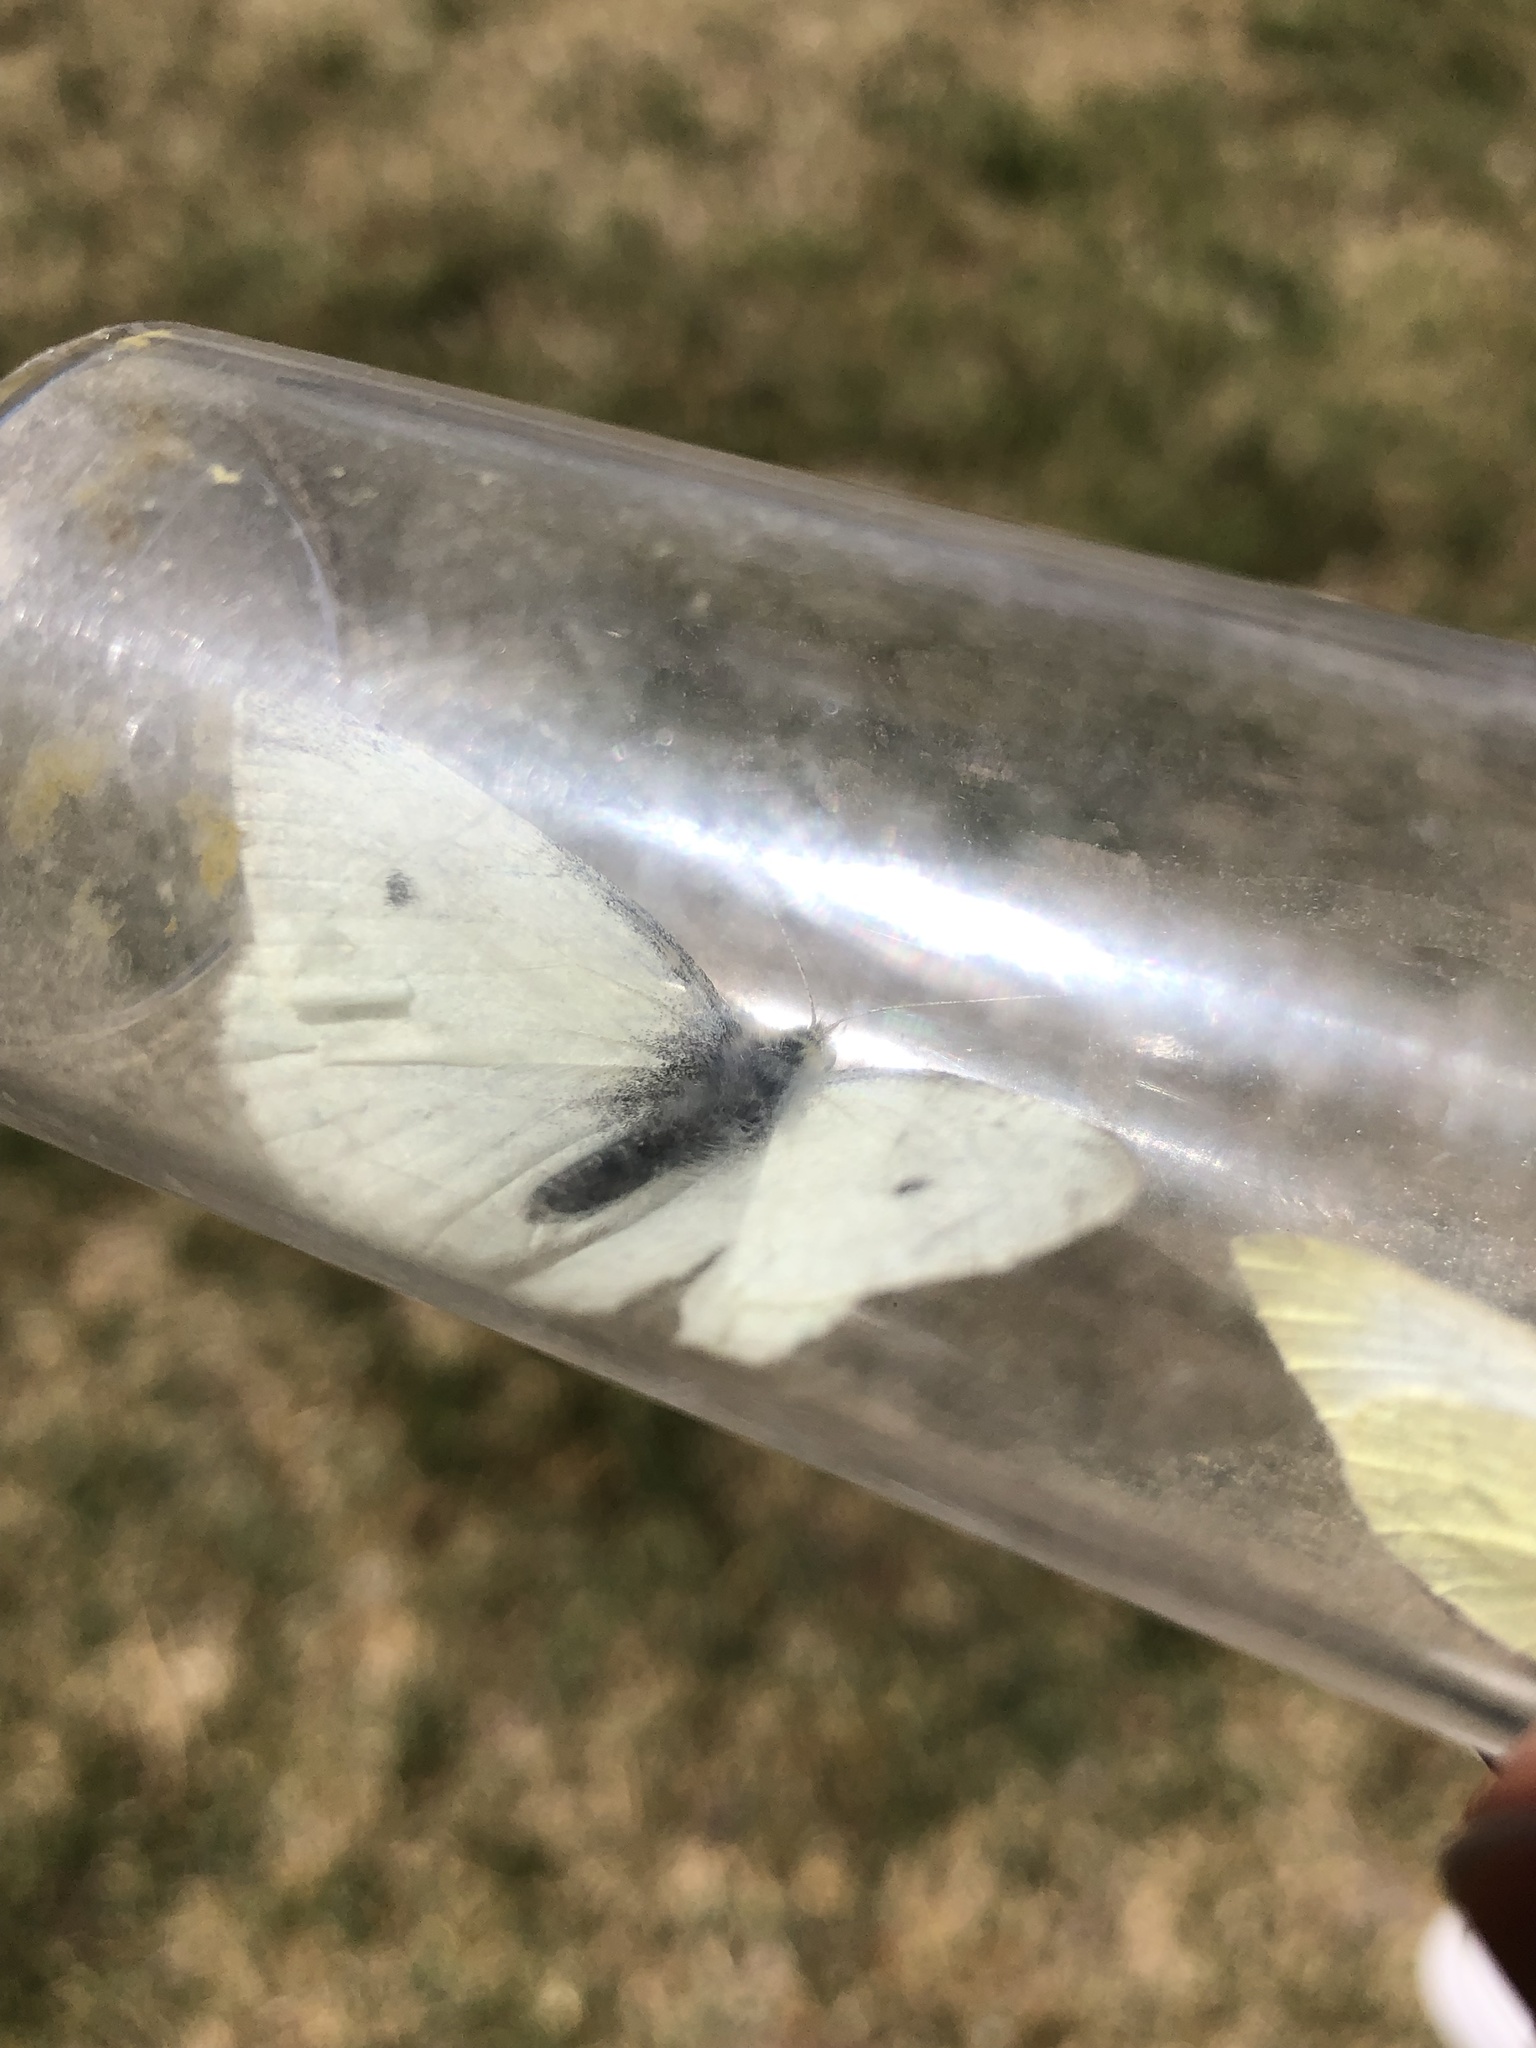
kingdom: Animalia
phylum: Arthropoda
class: Insecta
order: Lepidoptera
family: Pieridae
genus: Pieris
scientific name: Pieris rapae
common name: Small white
